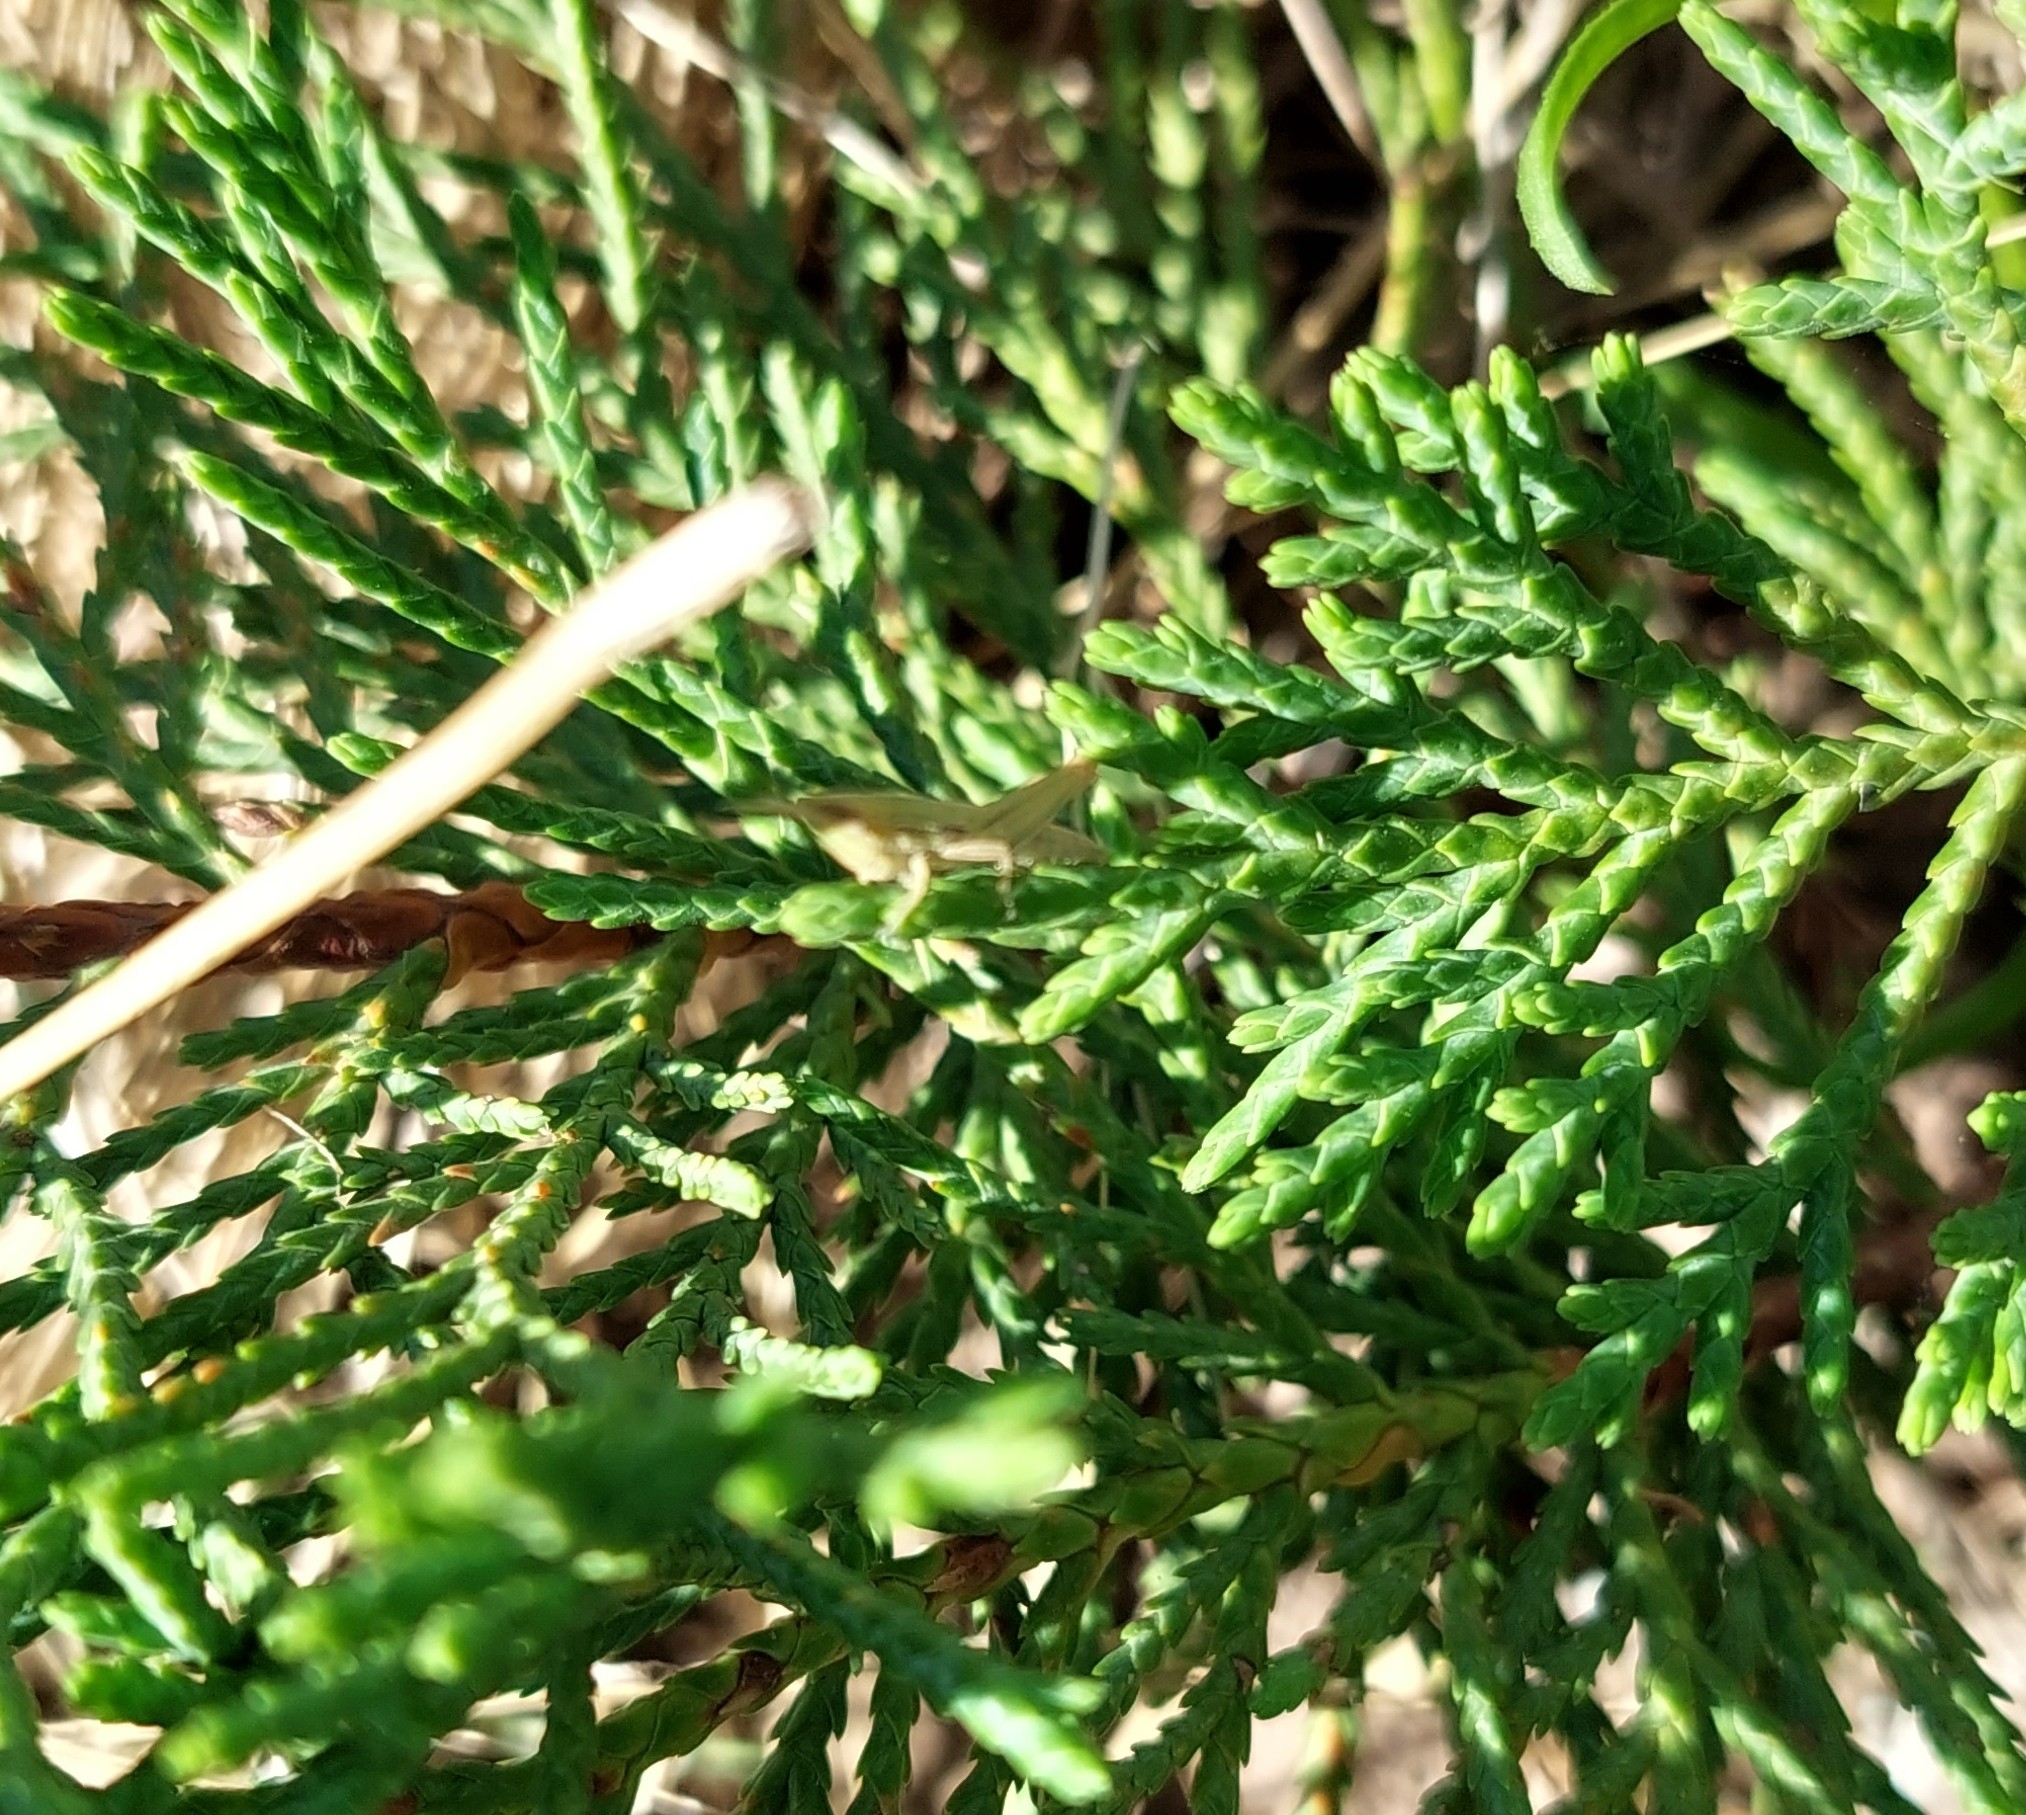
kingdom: Animalia
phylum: Arthropoda
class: Insecta
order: Orthoptera
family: Acrididae
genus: Sinipta
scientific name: Sinipta dalmani
